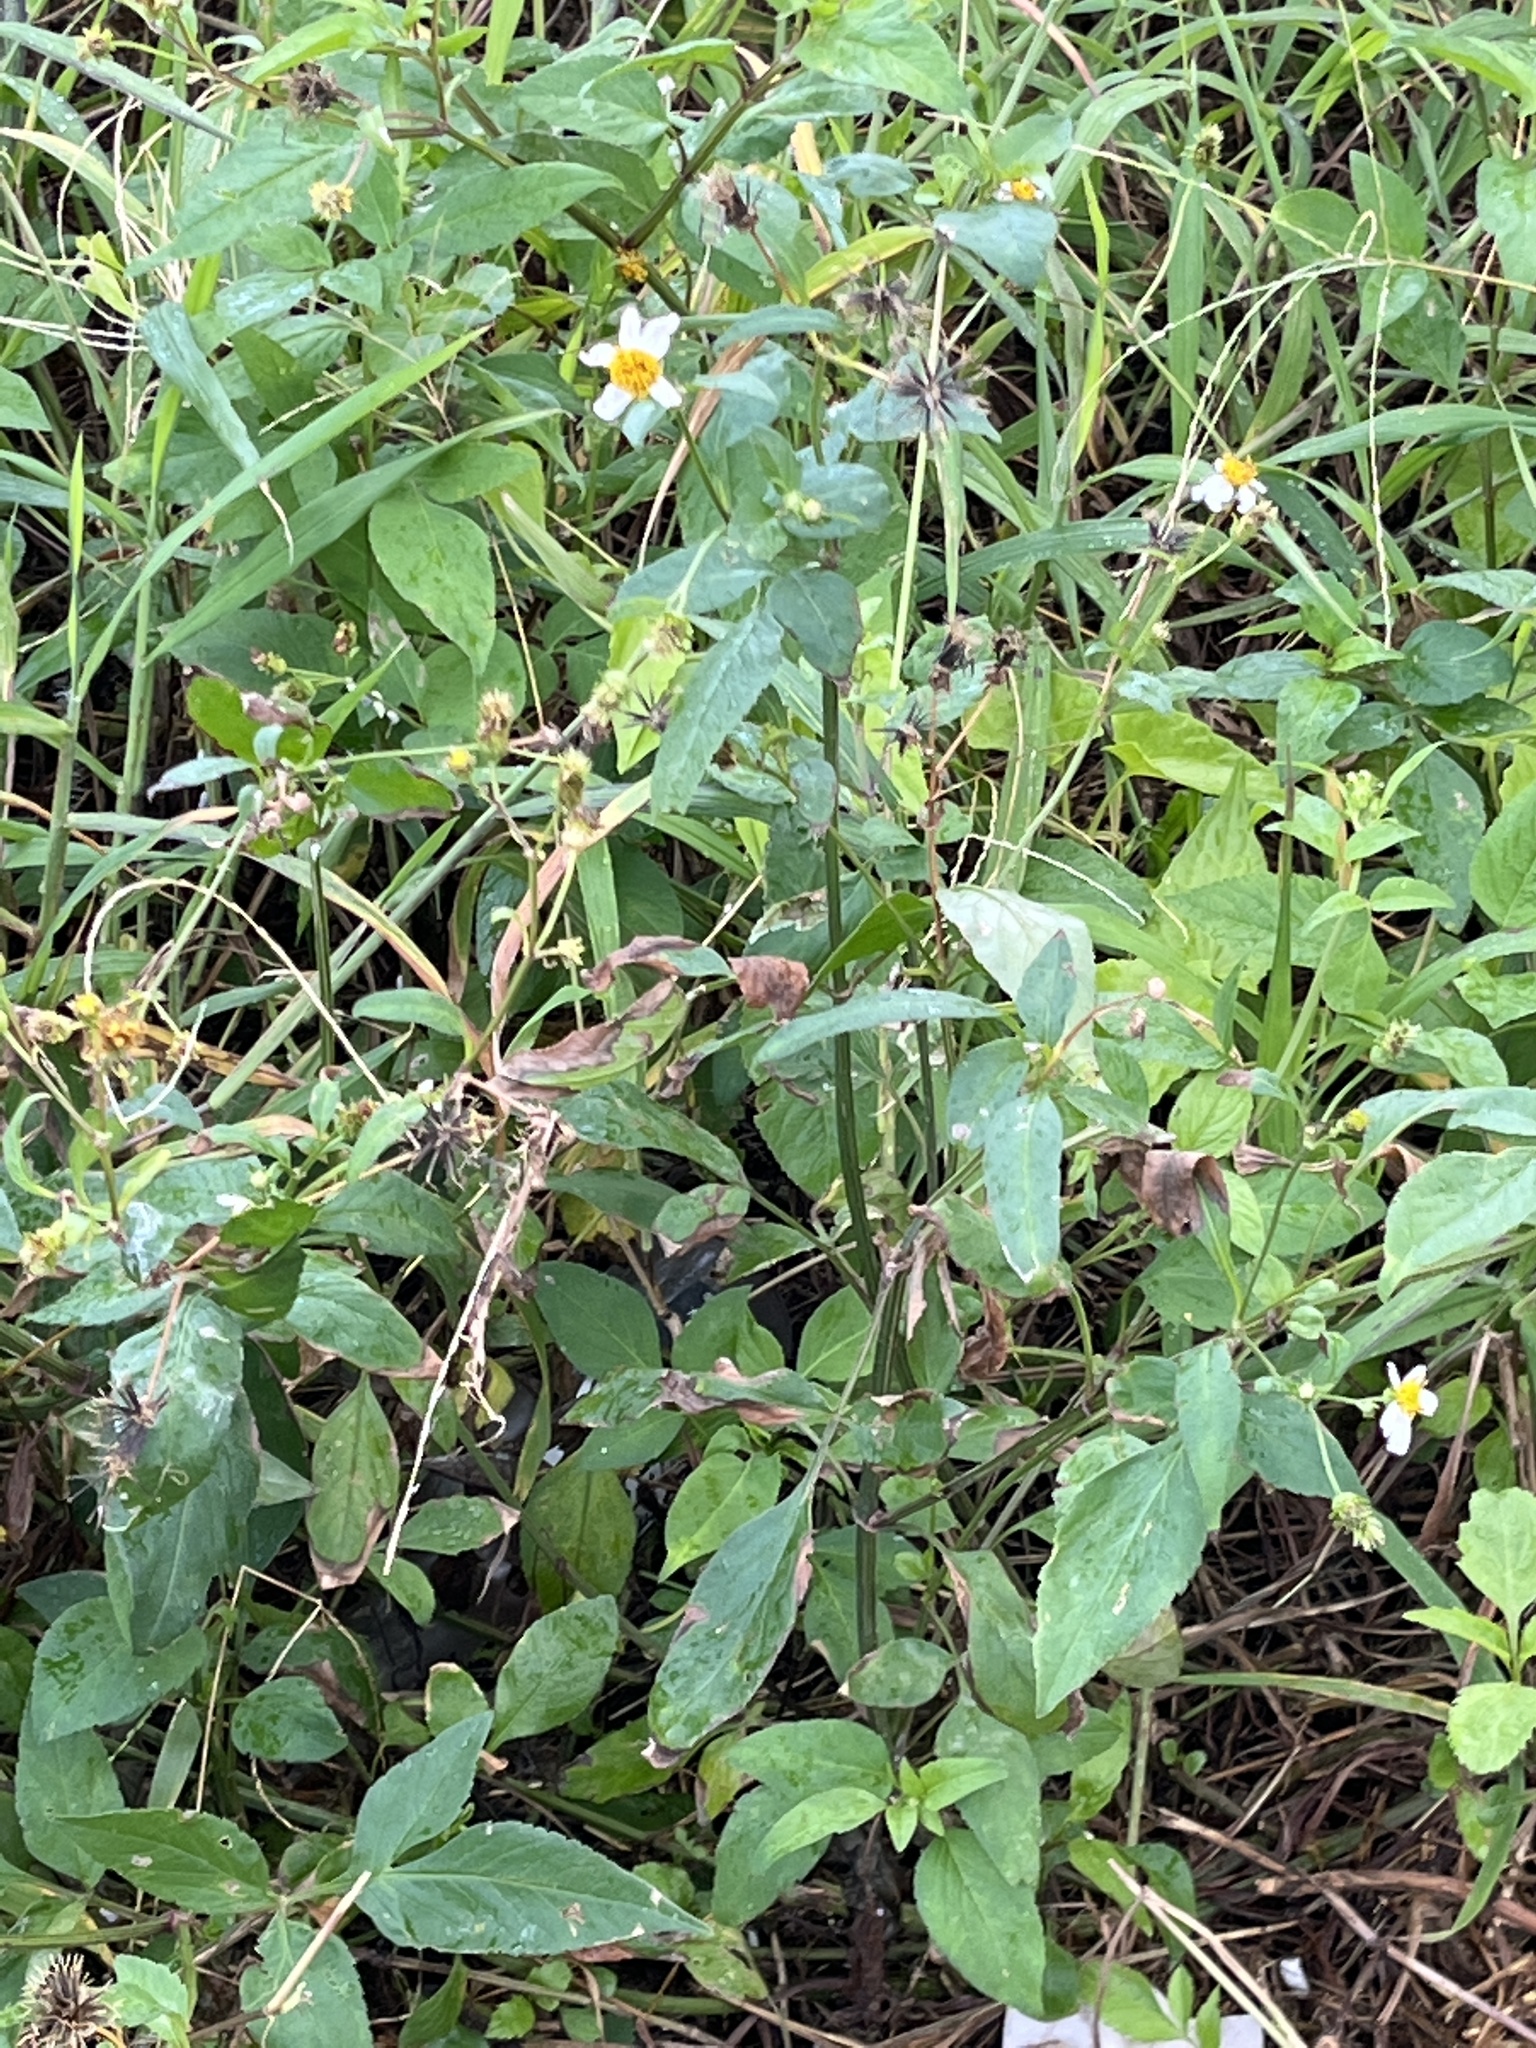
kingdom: Plantae
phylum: Tracheophyta
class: Magnoliopsida
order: Asterales
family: Asteraceae
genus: Bidens
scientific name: Bidens alba
